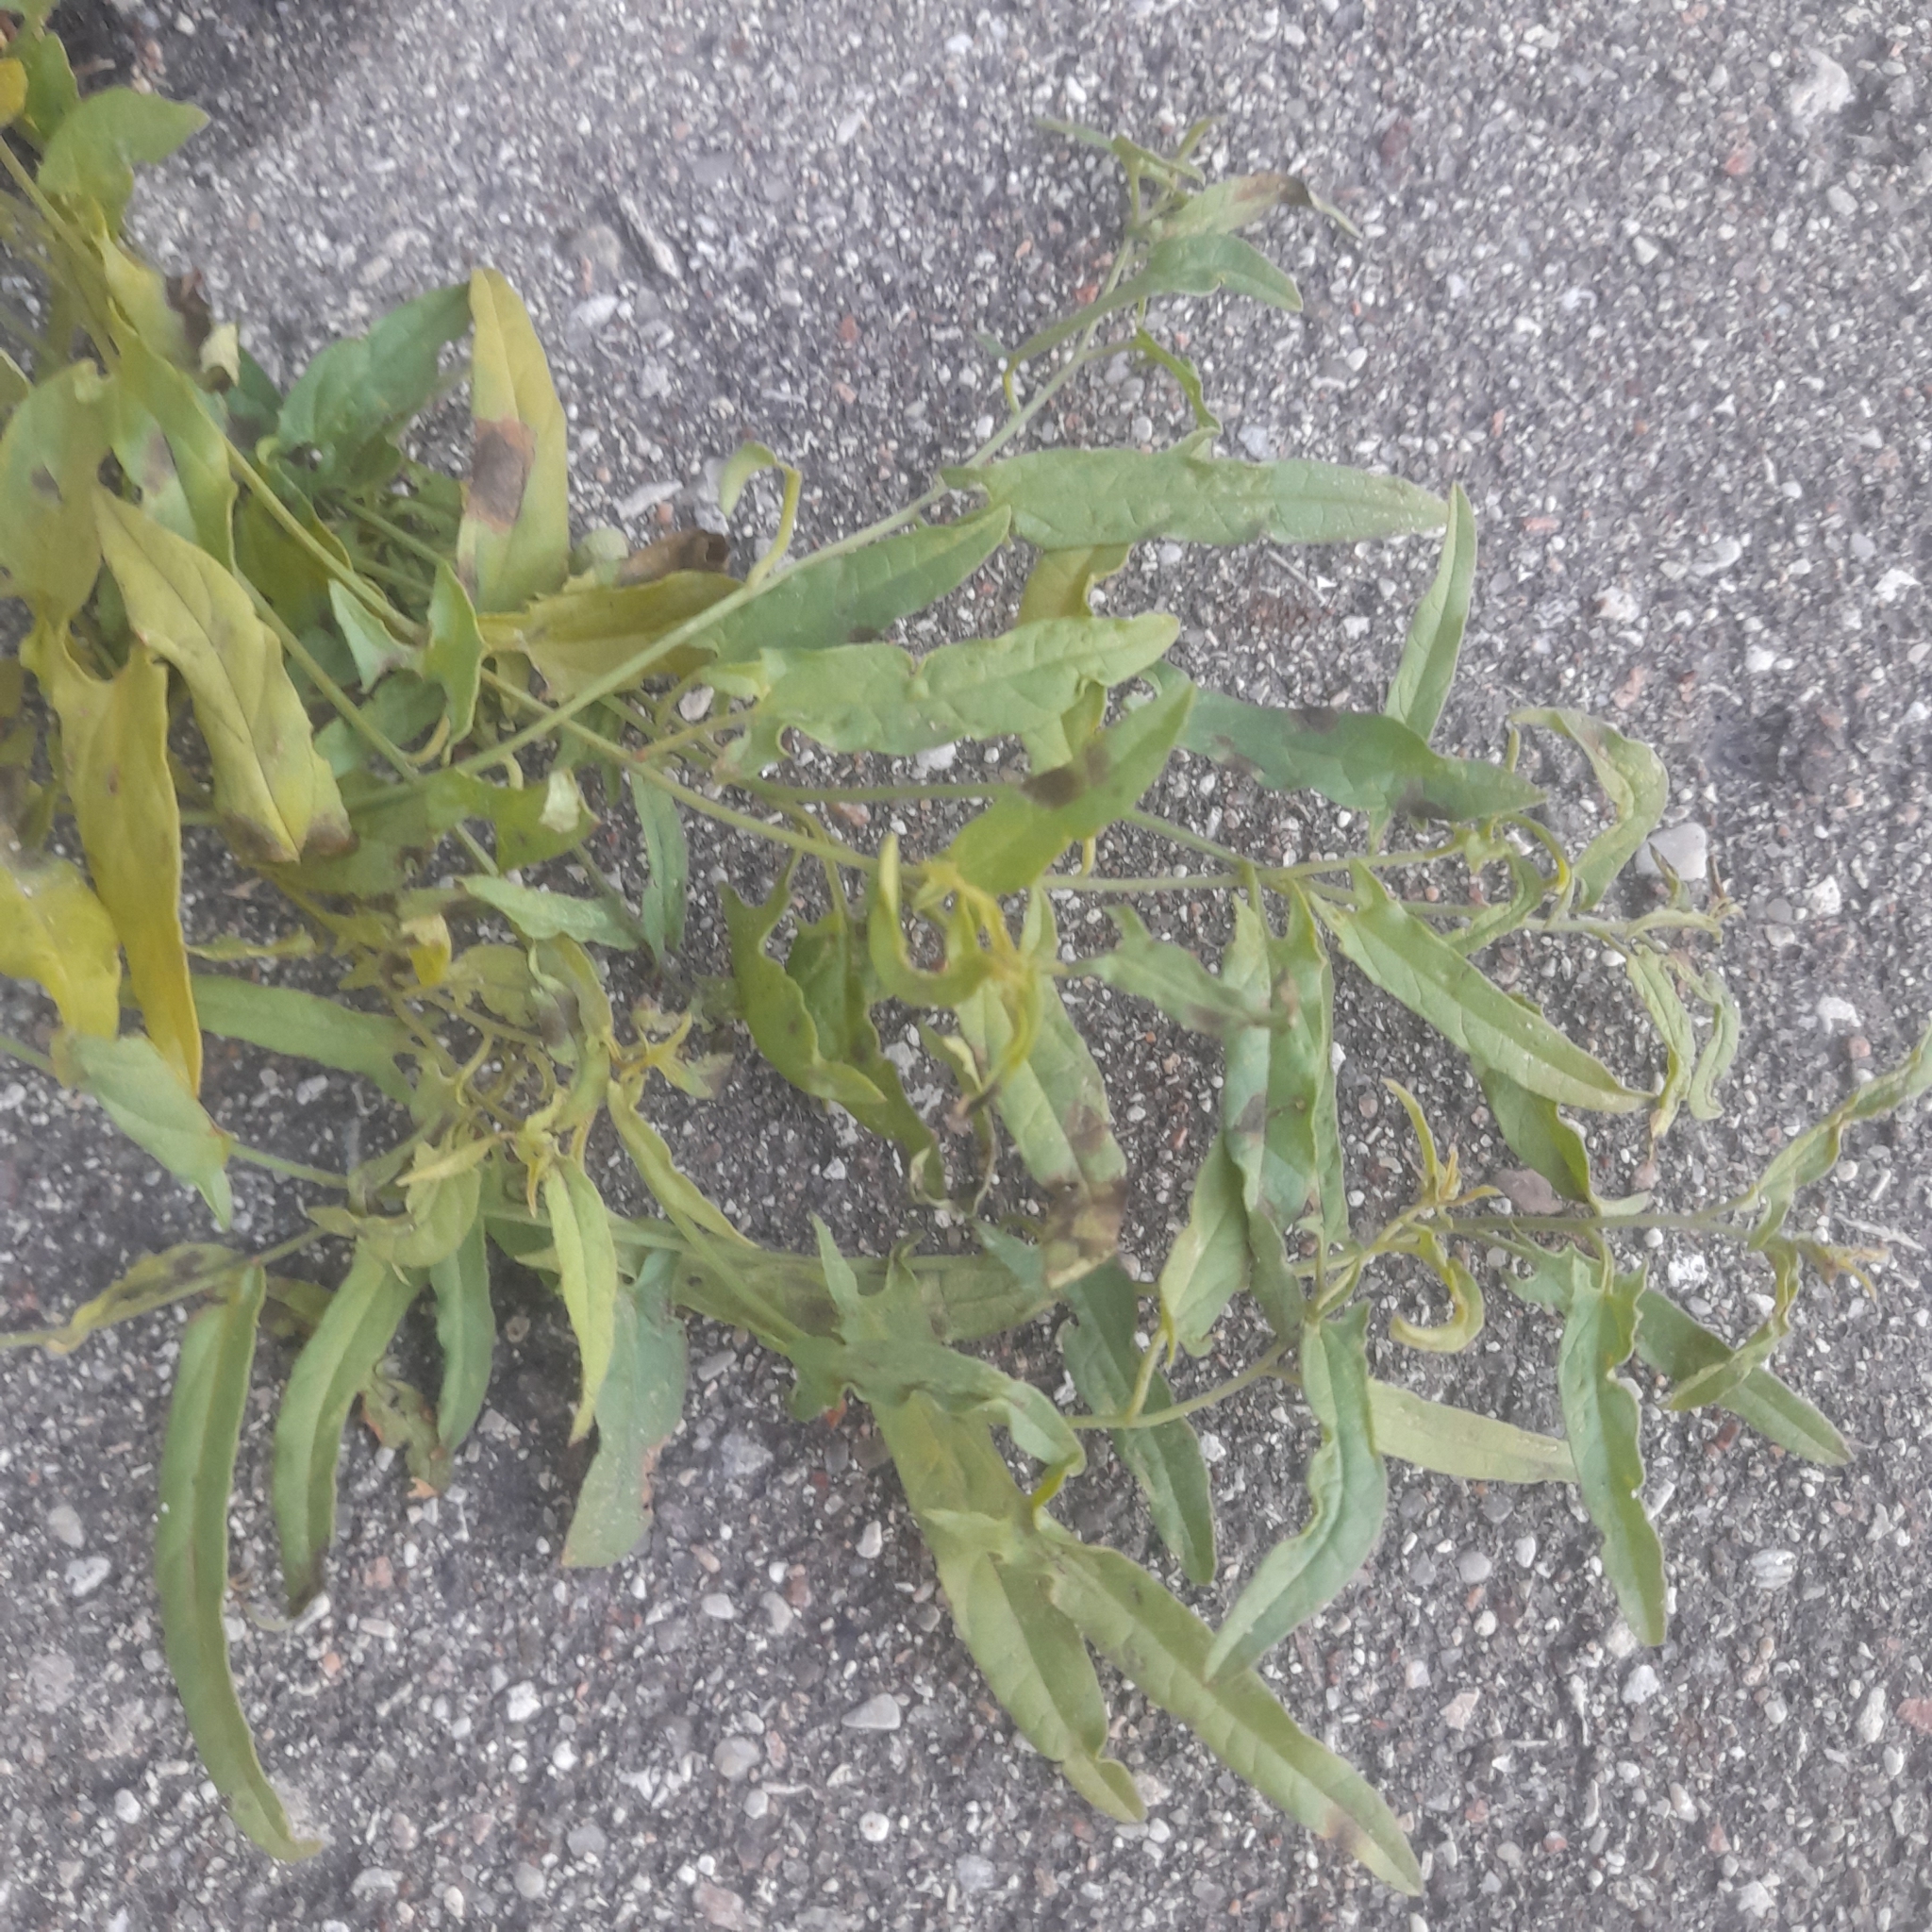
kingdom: Plantae
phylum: Tracheophyta
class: Magnoliopsida
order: Solanales
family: Convolvulaceae
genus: Convolvulus
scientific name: Convolvulus arvensis
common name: Field bindweed
